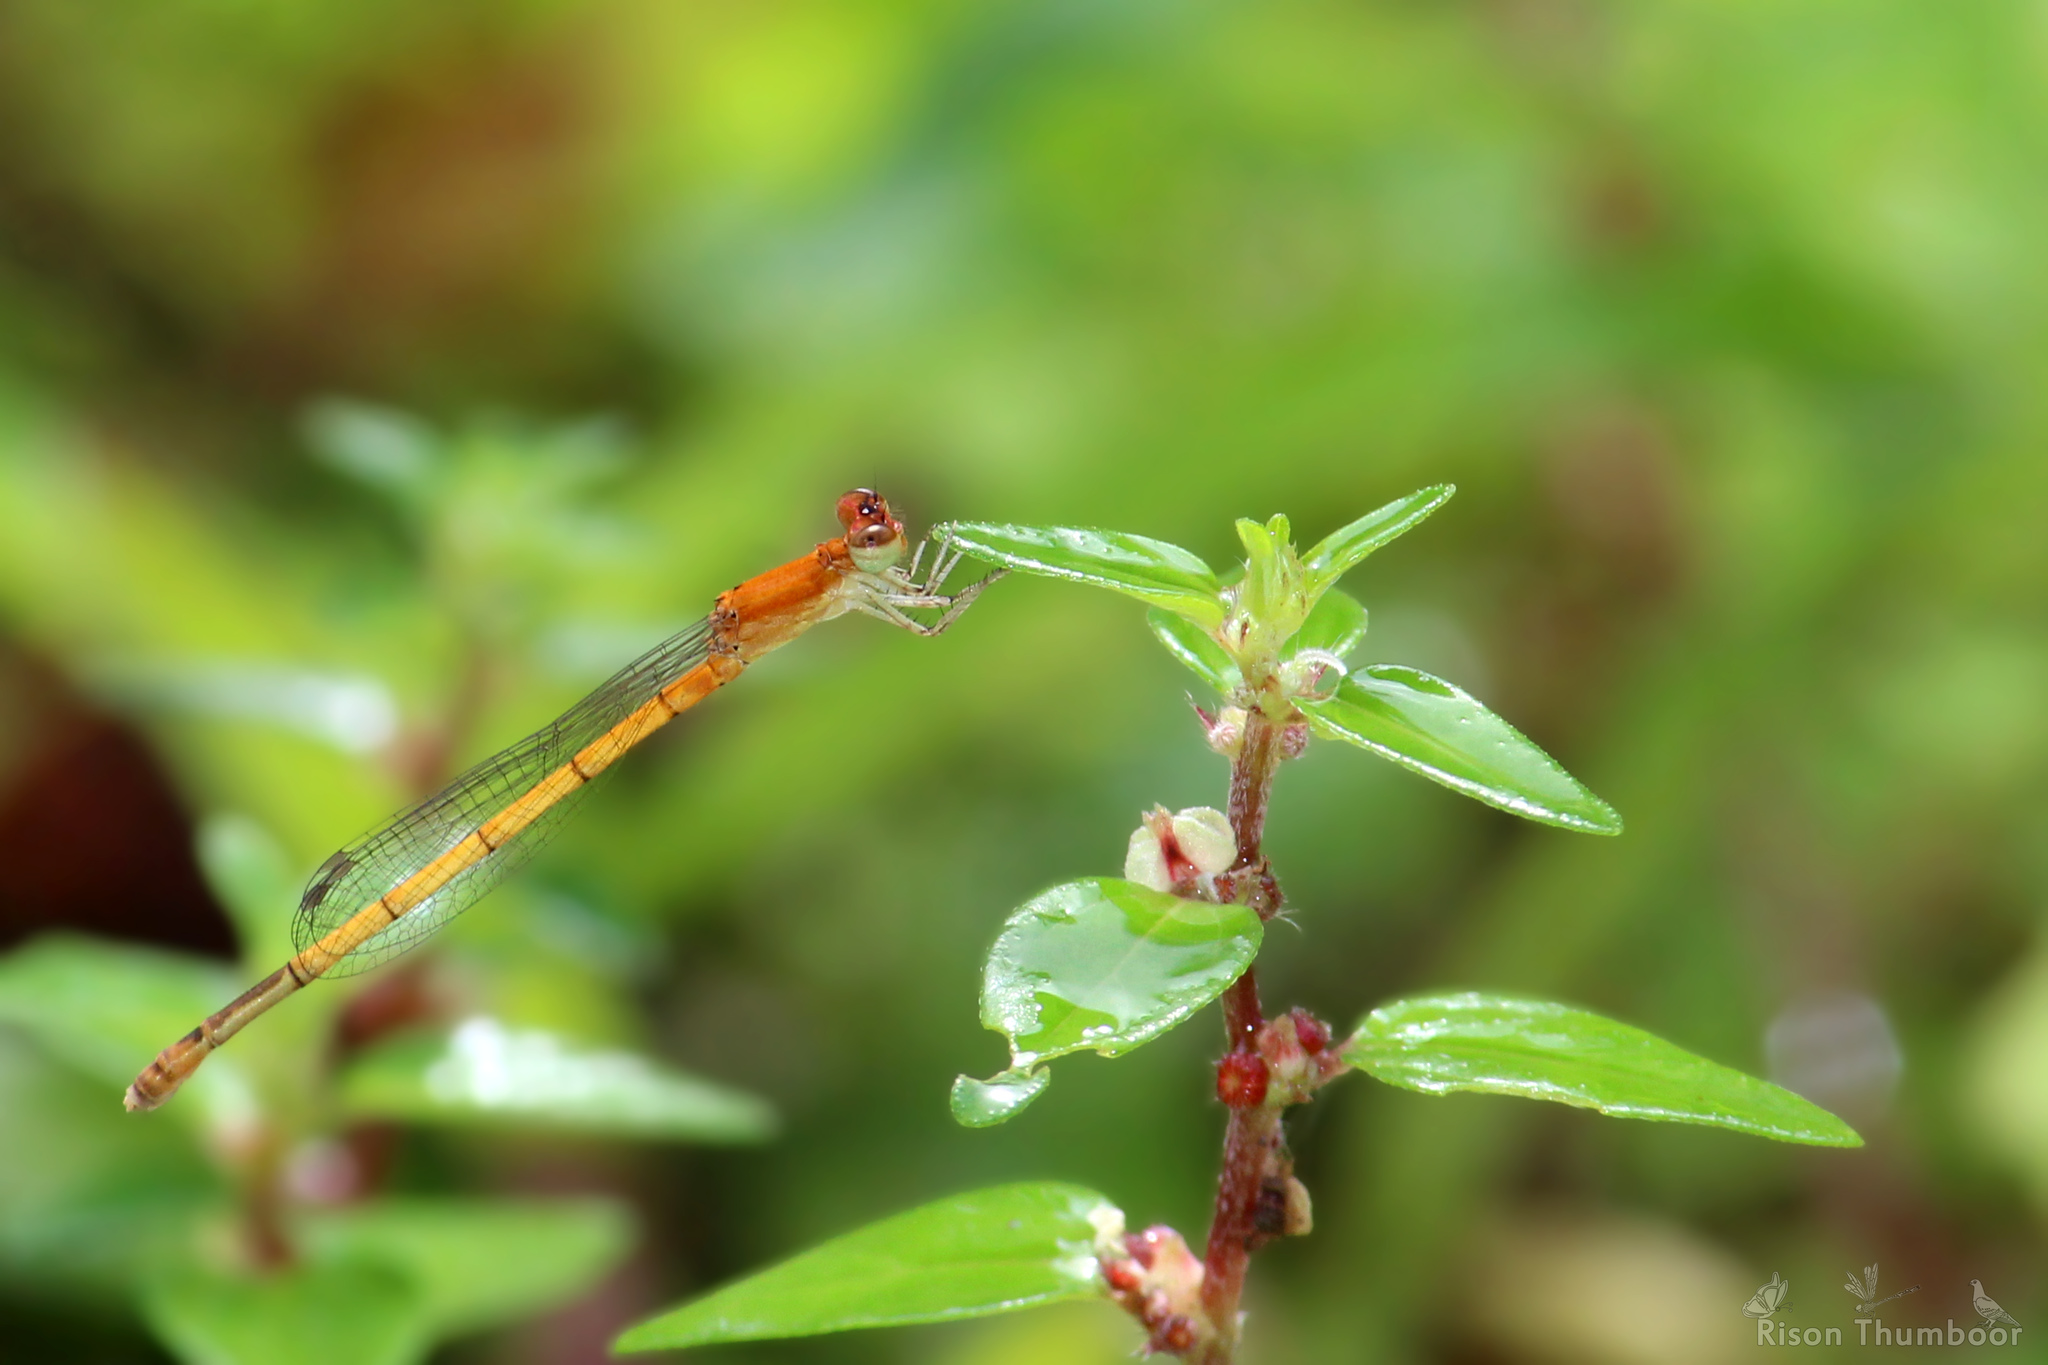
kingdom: Animalia
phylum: Arthropoda
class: Insecta
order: Odonata
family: Coenagrionidae
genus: Agriocnemis
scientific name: Agriocnemis pieris
